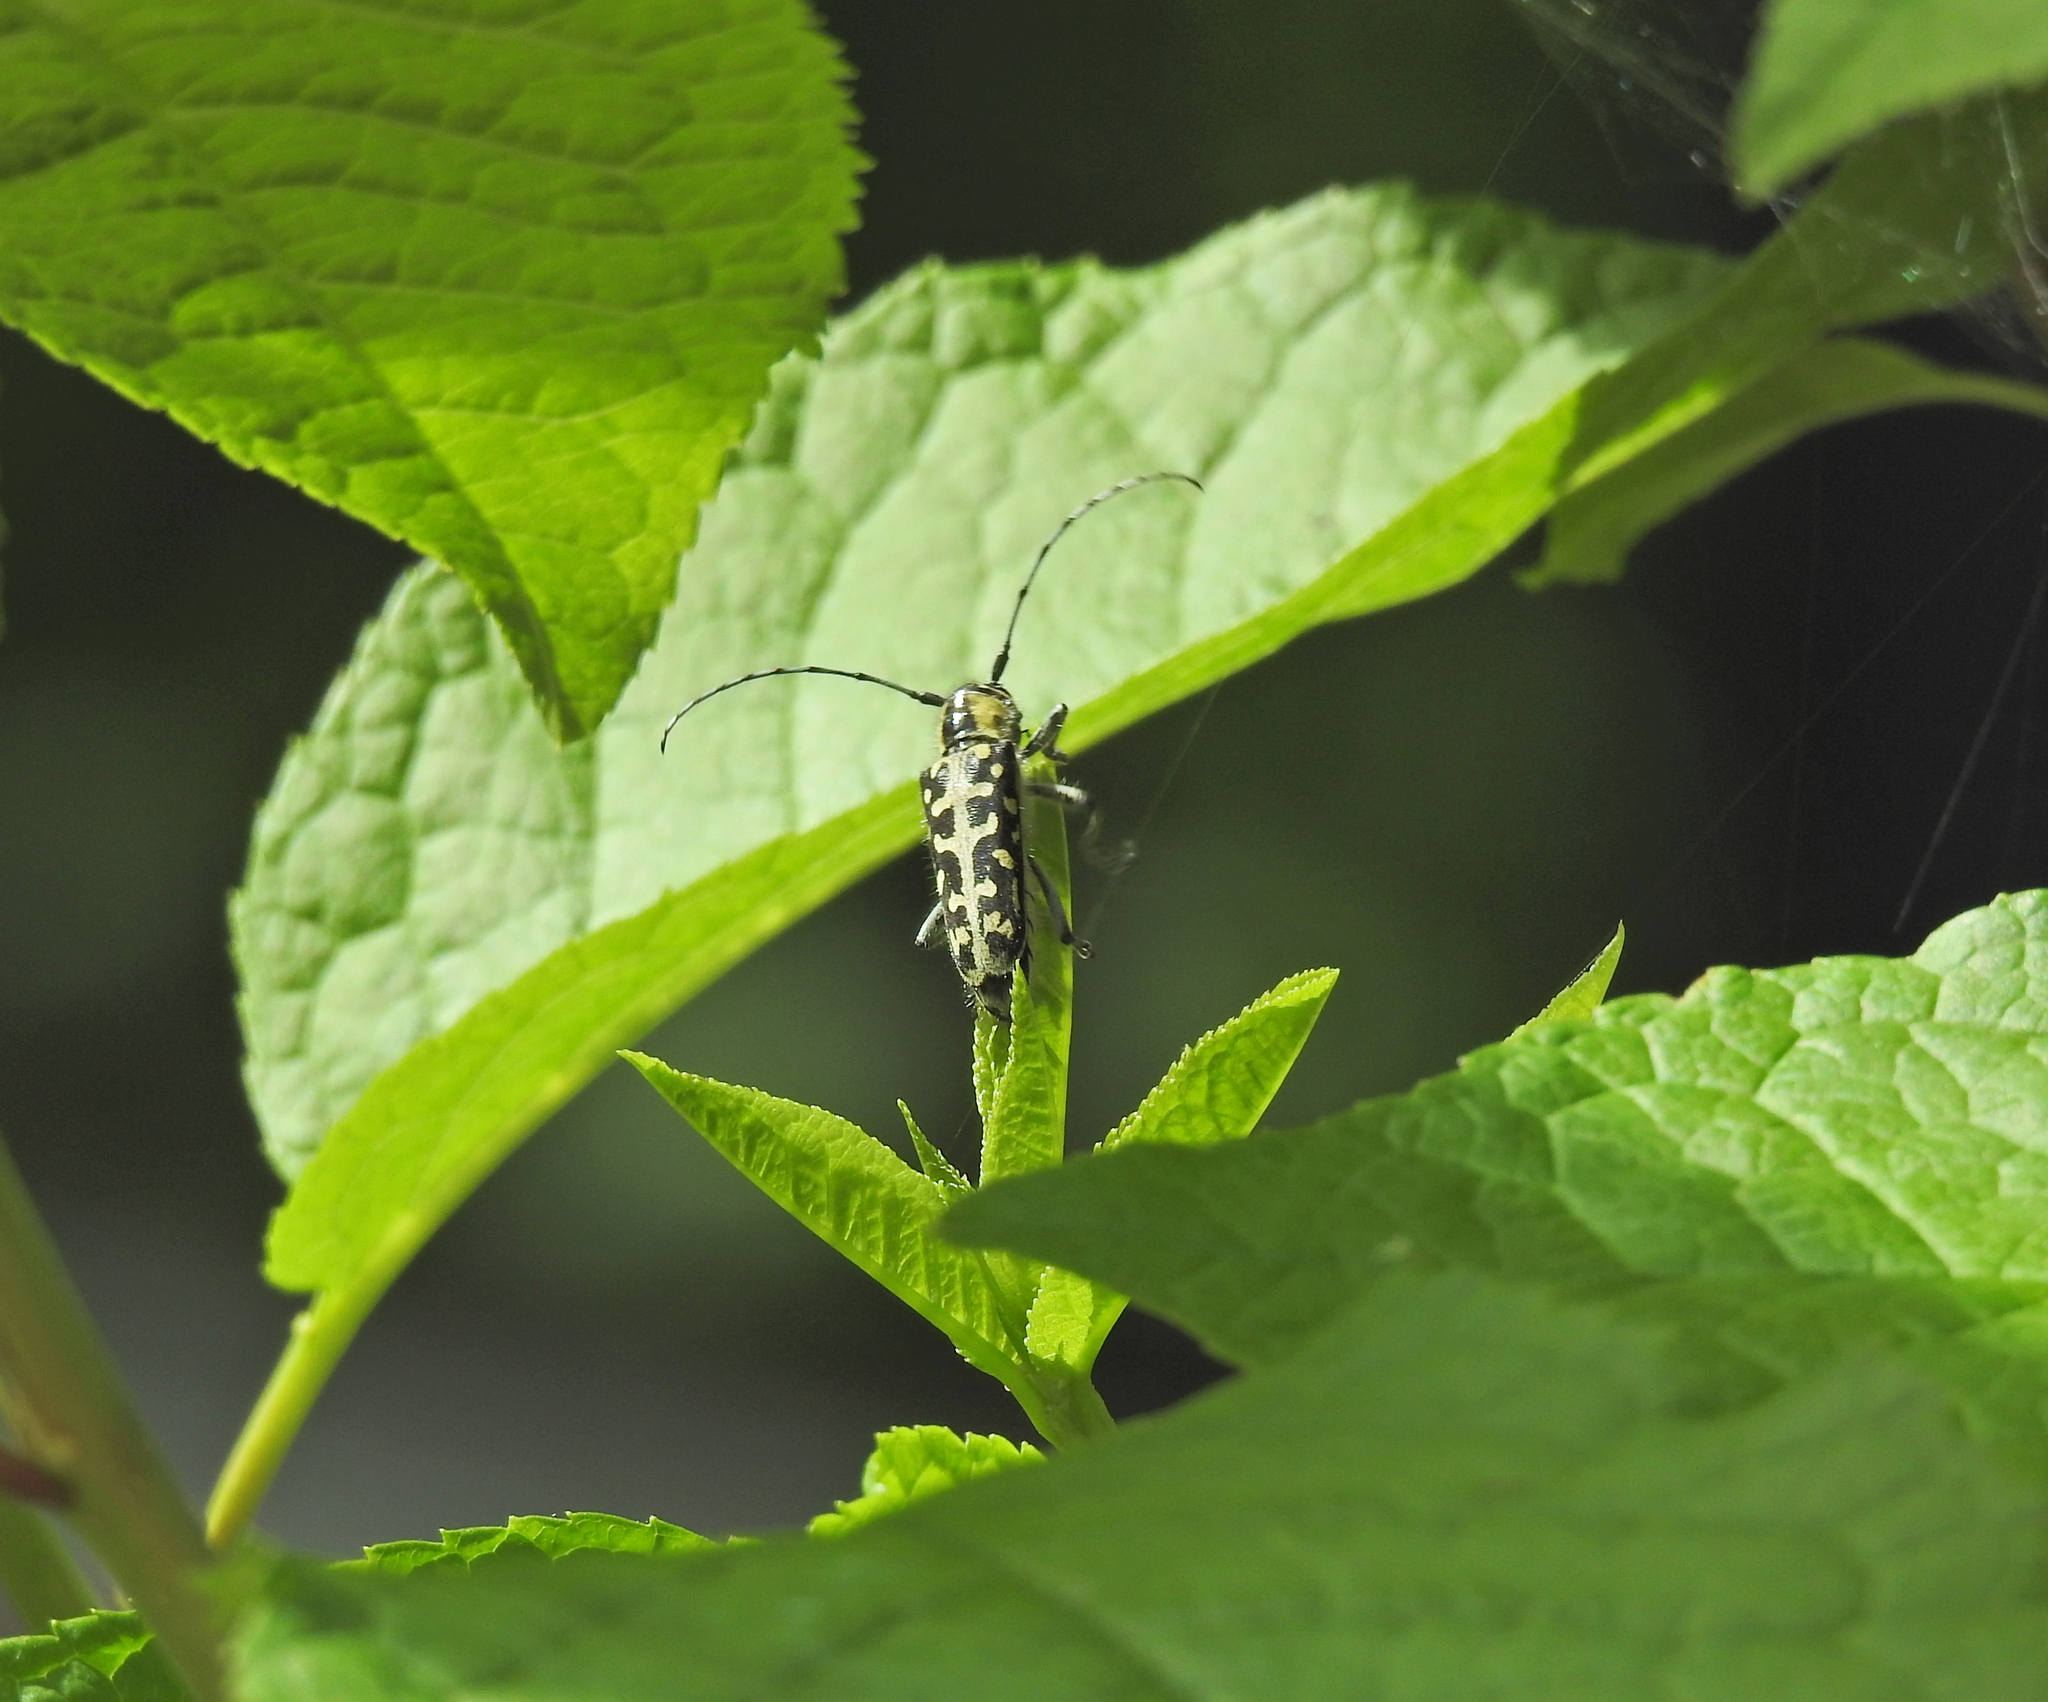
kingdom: Animalia
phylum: Arthropoda
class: Insecta
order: Coleoptera
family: Cerambycidae
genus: Saperda
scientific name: Saperda scalaris
